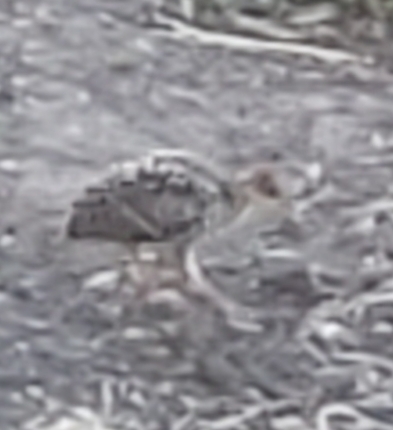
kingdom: Animalia
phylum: Chordata
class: Aves
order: Galliformes
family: Phasianidae
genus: Meleagris
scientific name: Meleagris gallopavo
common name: Wild turkey
